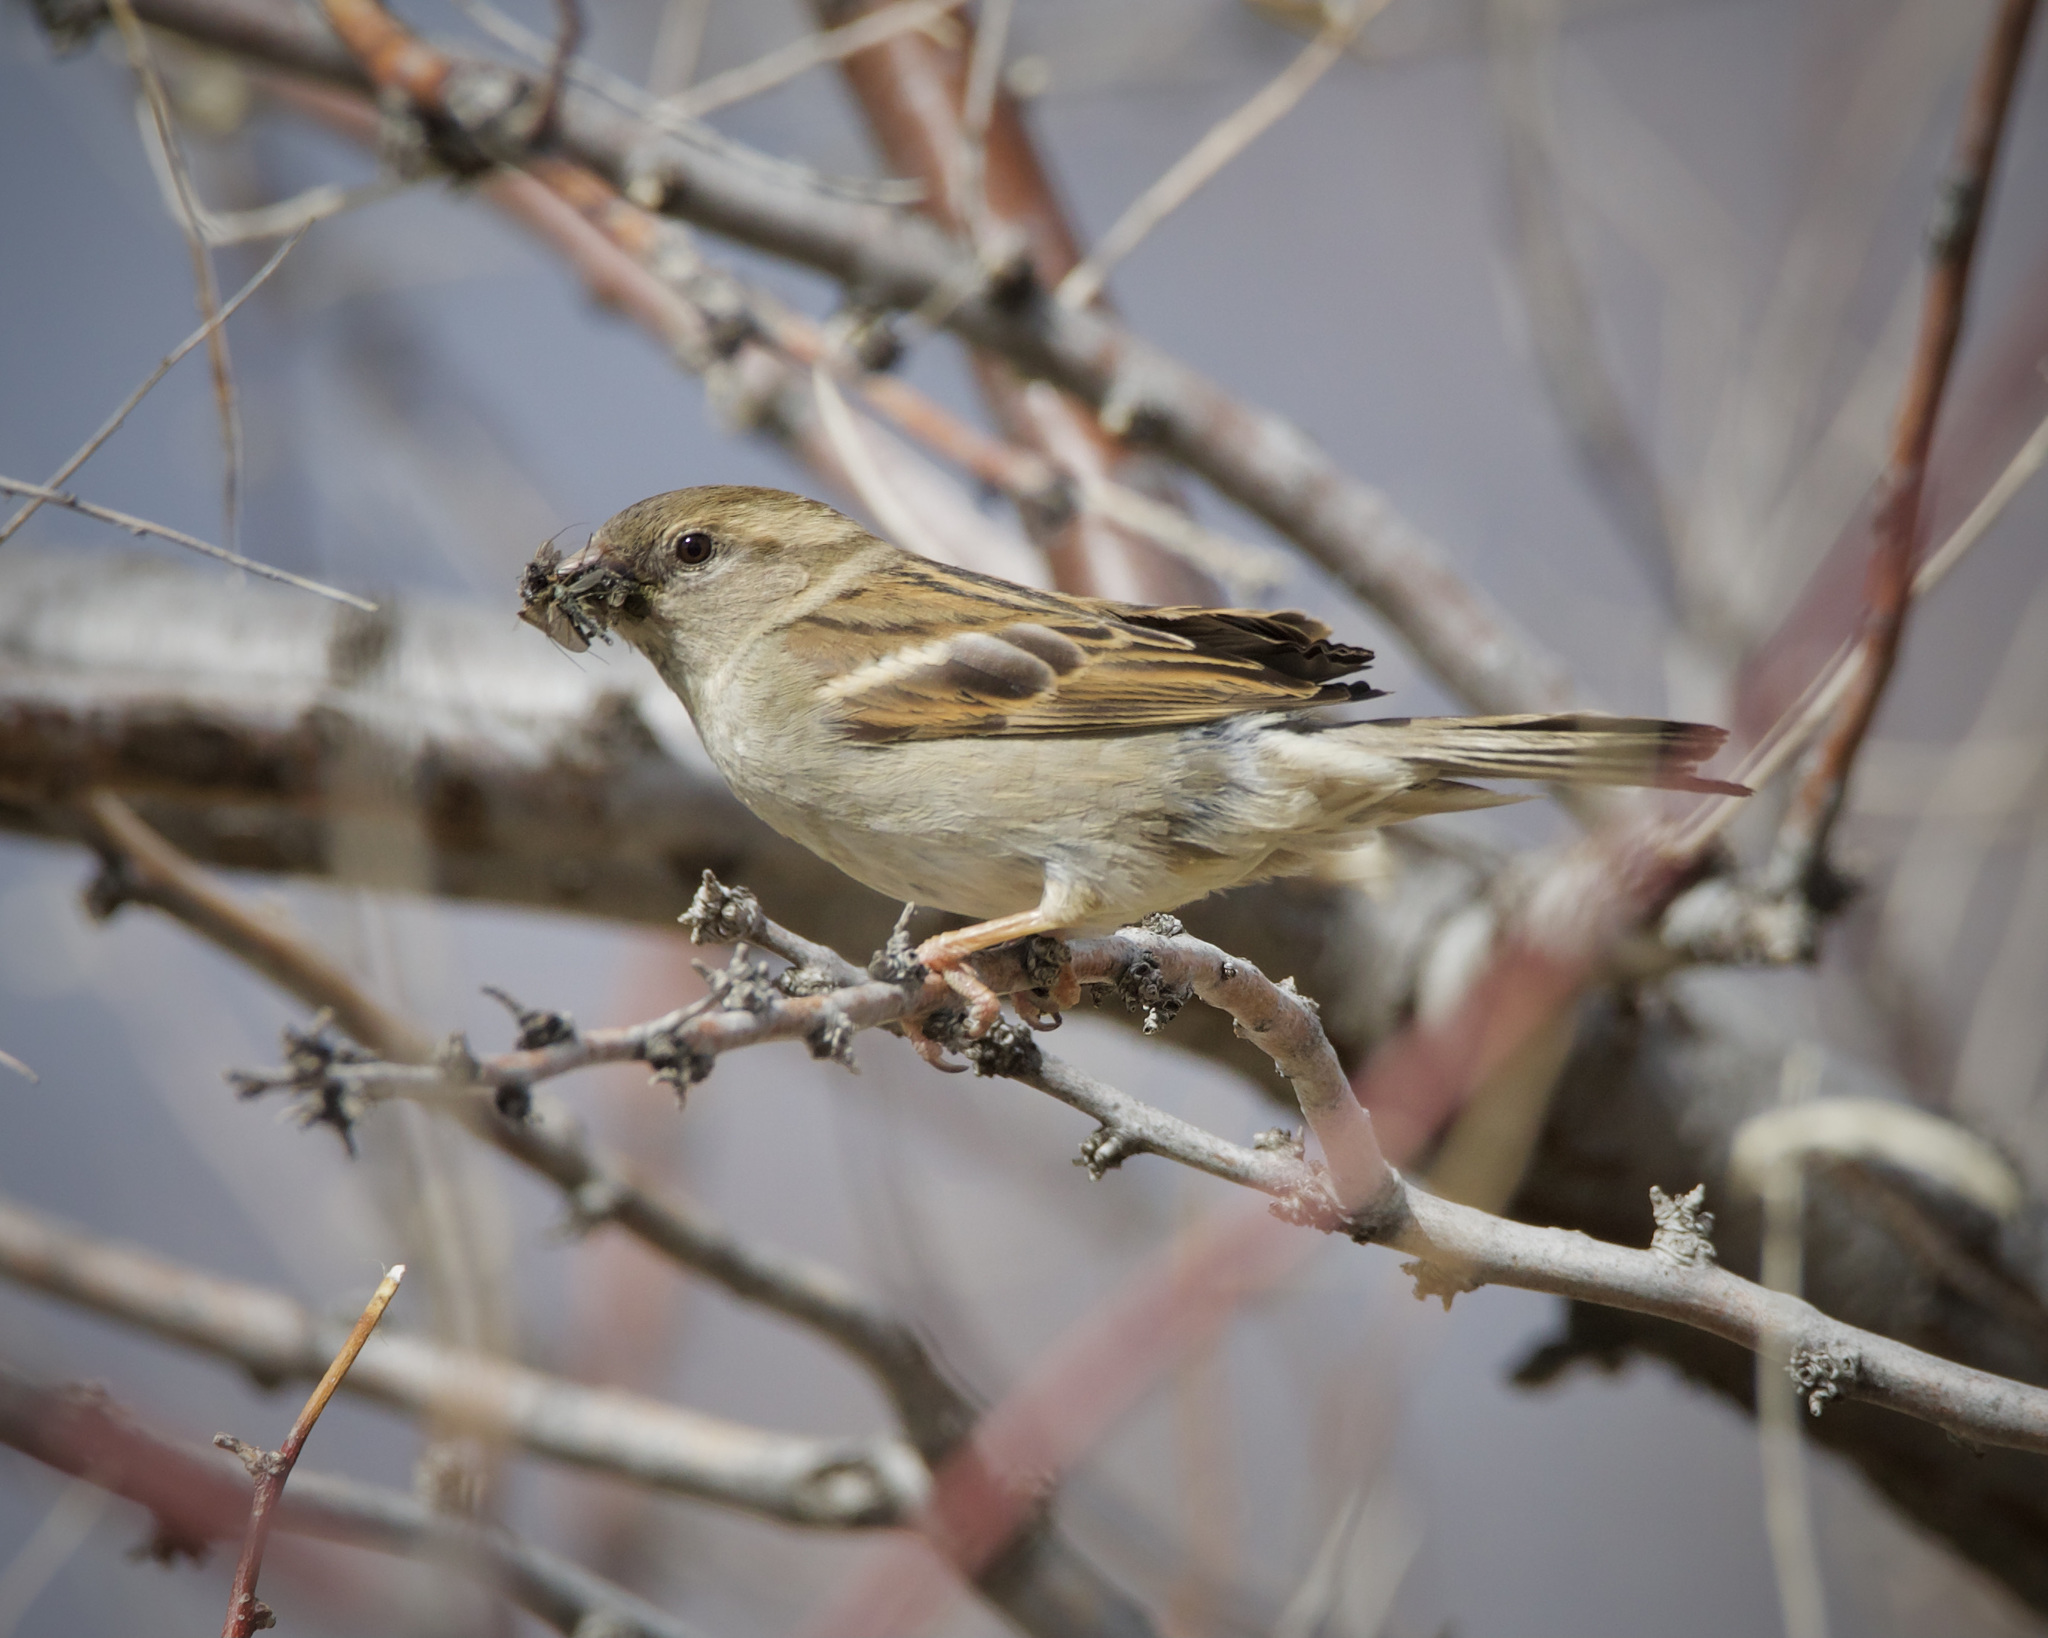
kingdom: Animalia
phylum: Chordata
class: Aves
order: Passeriformes
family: Passeridae
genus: Passer
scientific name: Passer domesticus
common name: House sparrow
